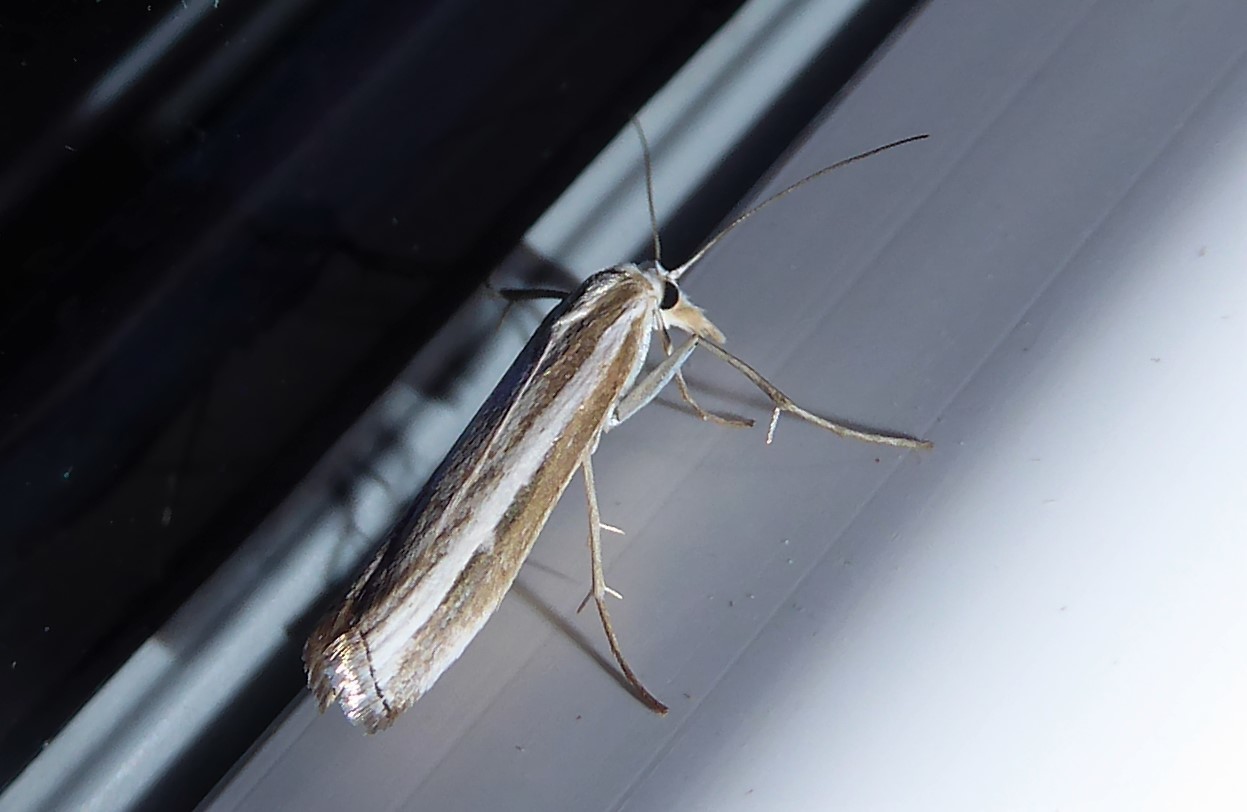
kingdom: Animalia
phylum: Arthropoda
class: Insecta
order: Lepidoptera
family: Crambidae
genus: Orocrambus
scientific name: Orocrambus vittellus
